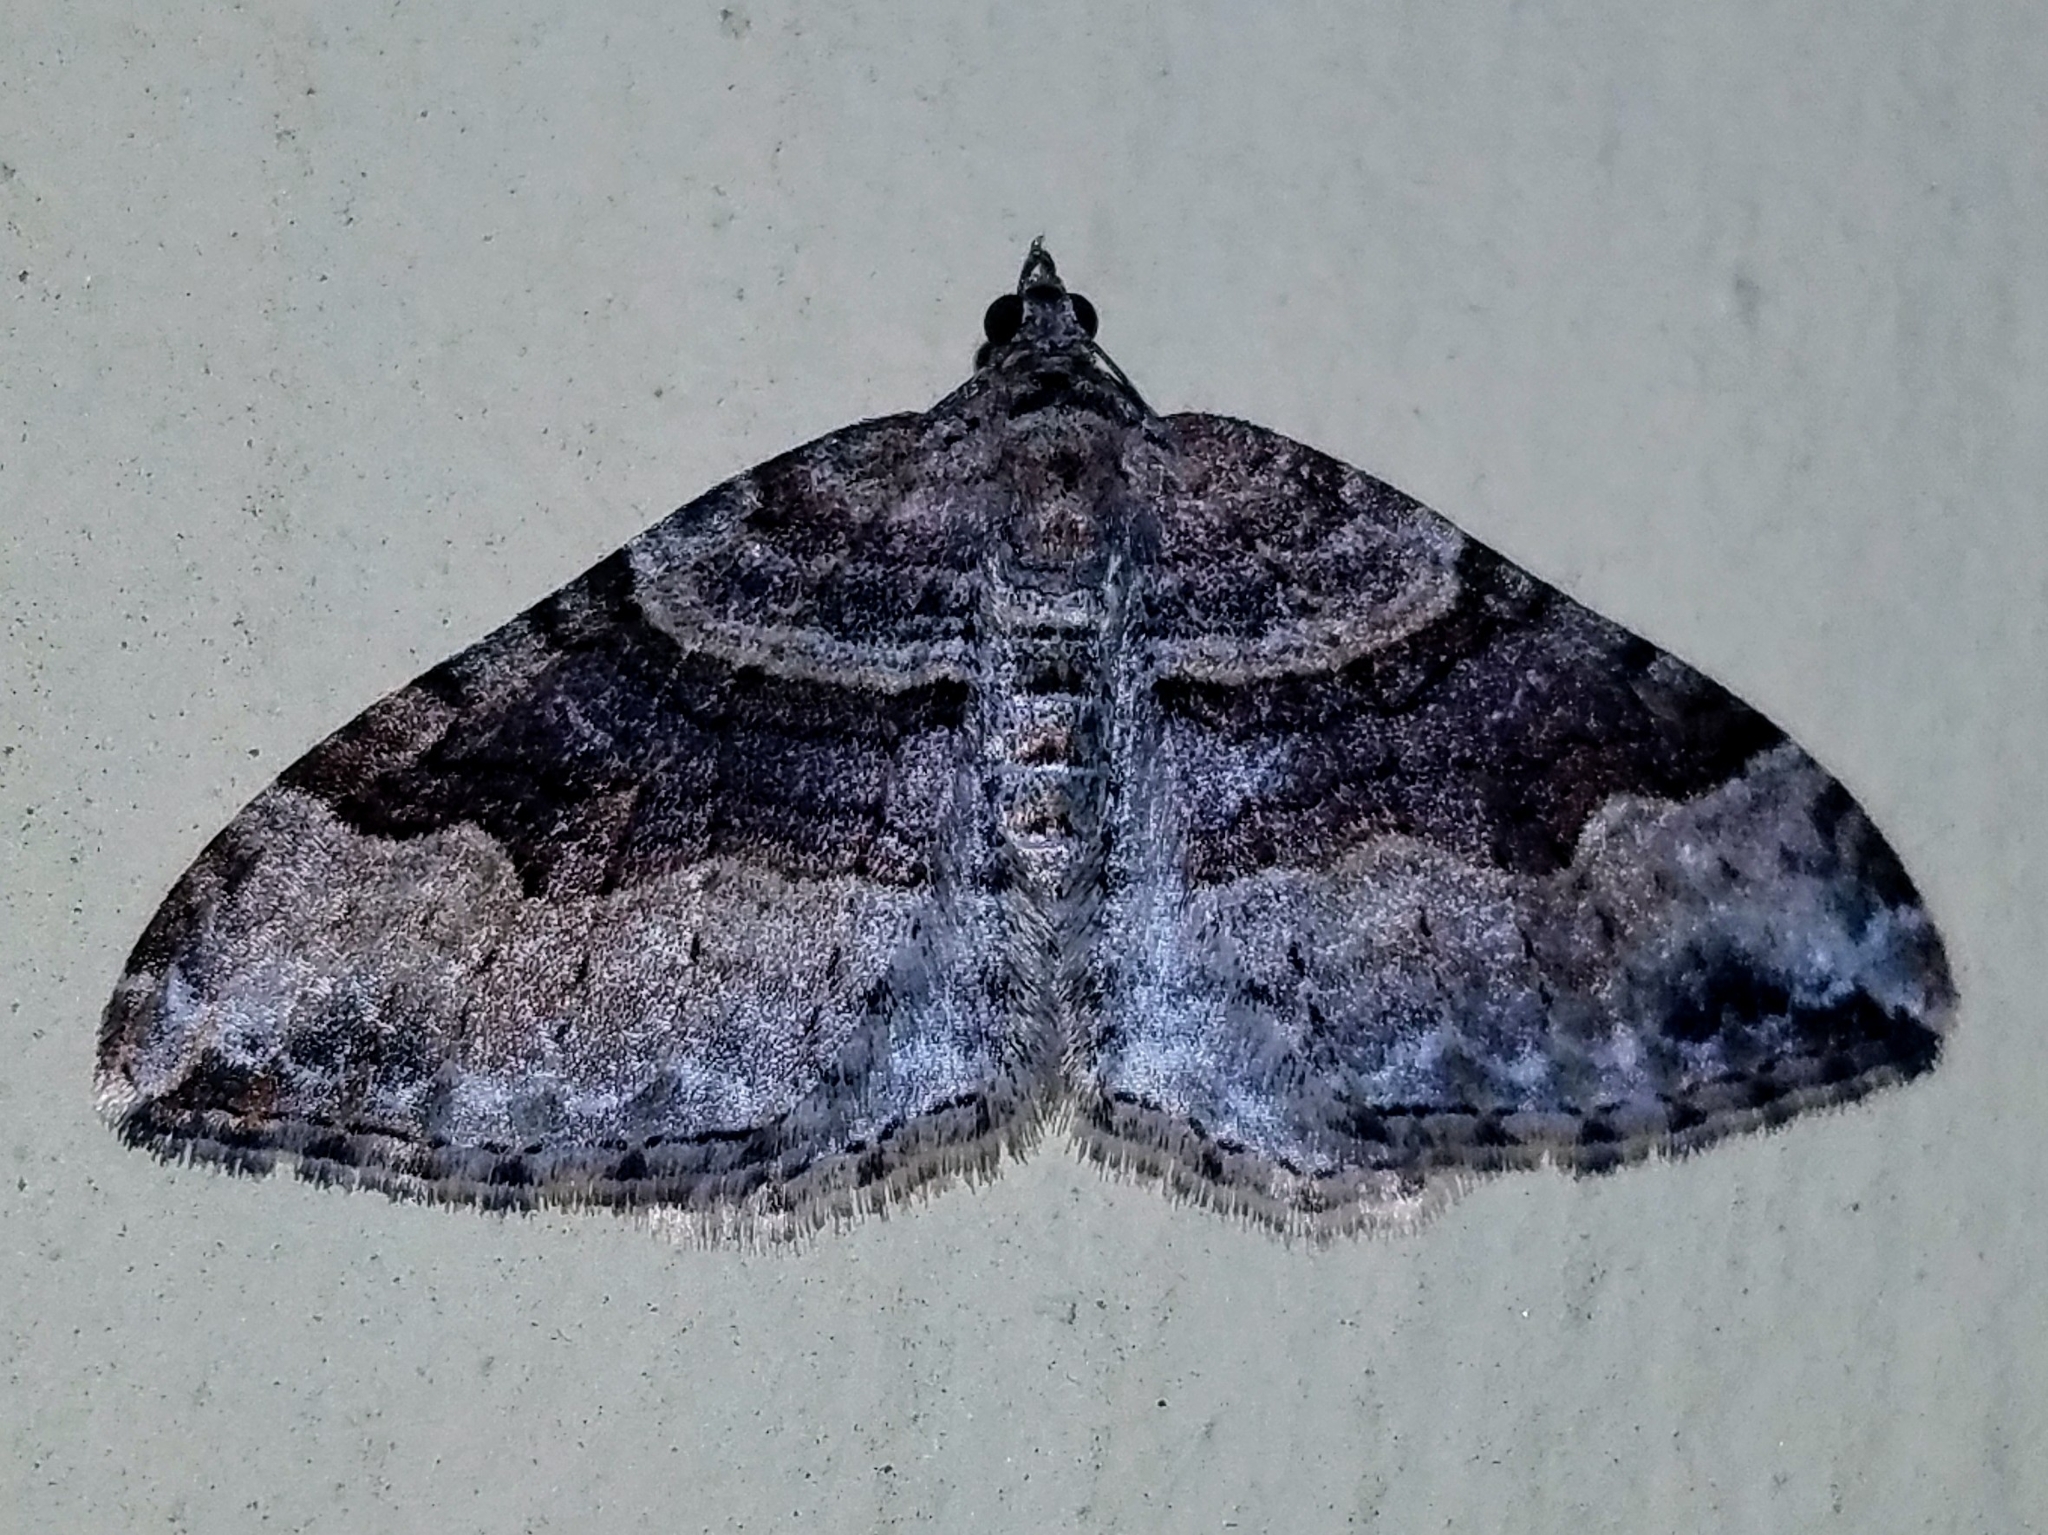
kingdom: Animalia
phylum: Arthropoda
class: Insecta
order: Lepidoptera
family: Geometridae
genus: Xanthorhoe
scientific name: Xanthorhoe defensaria
